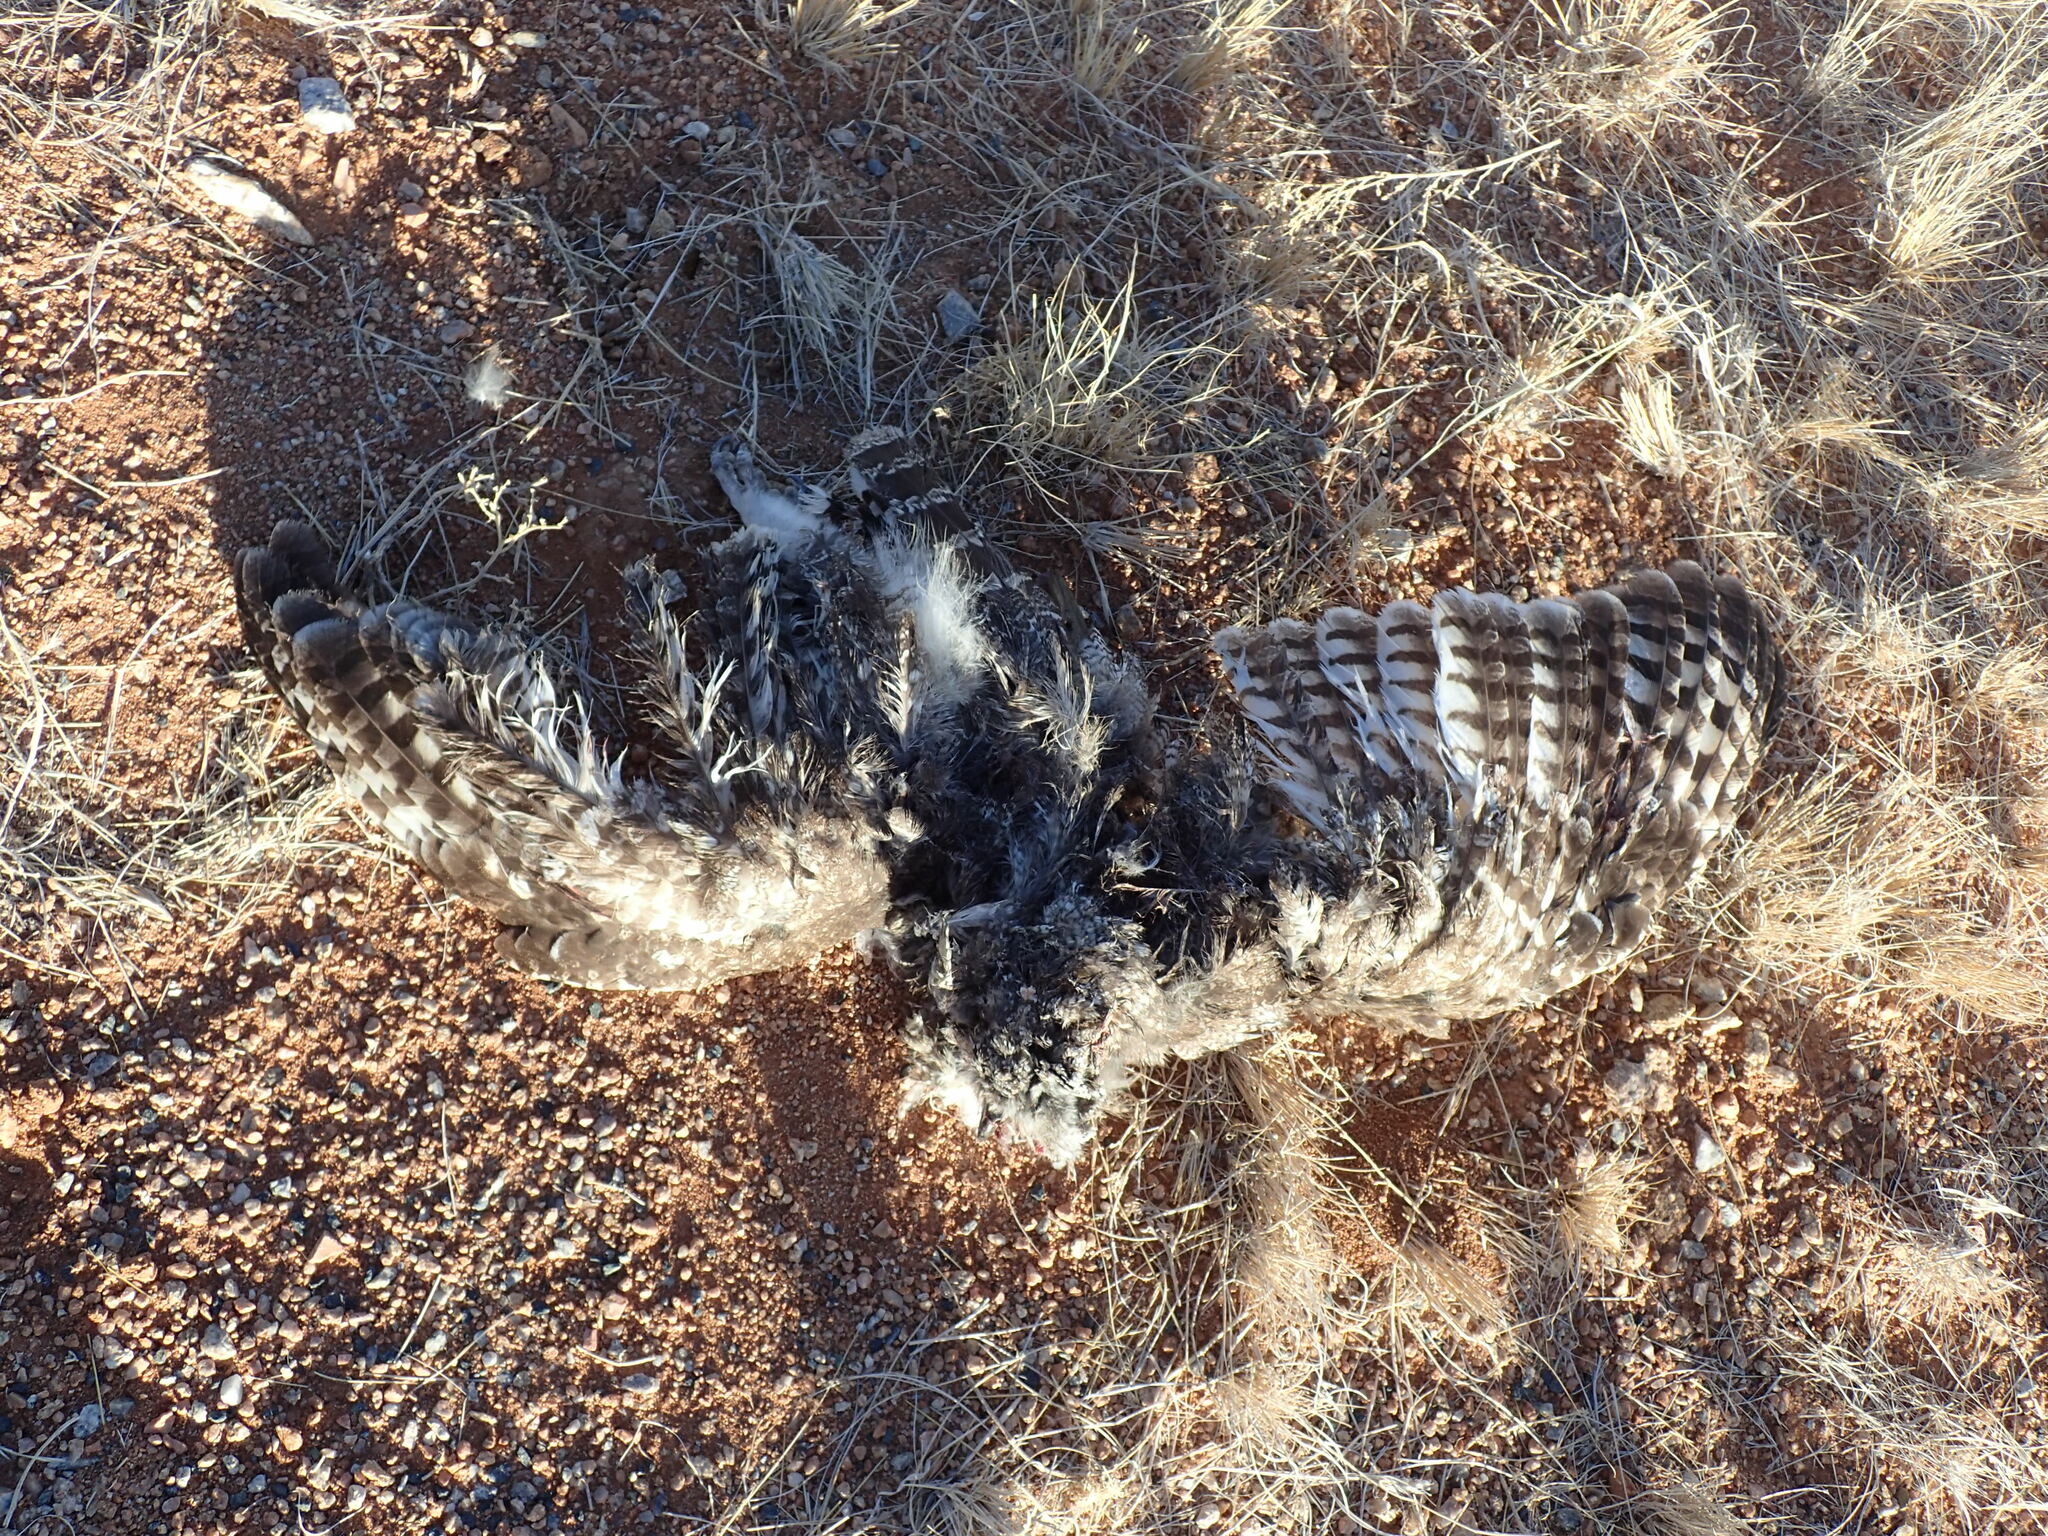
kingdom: Animalia
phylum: Chordata
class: Aves
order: Strigiformes
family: Strigidae
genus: Bubo
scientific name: Bubo africanus
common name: Spotted eagle-owl
